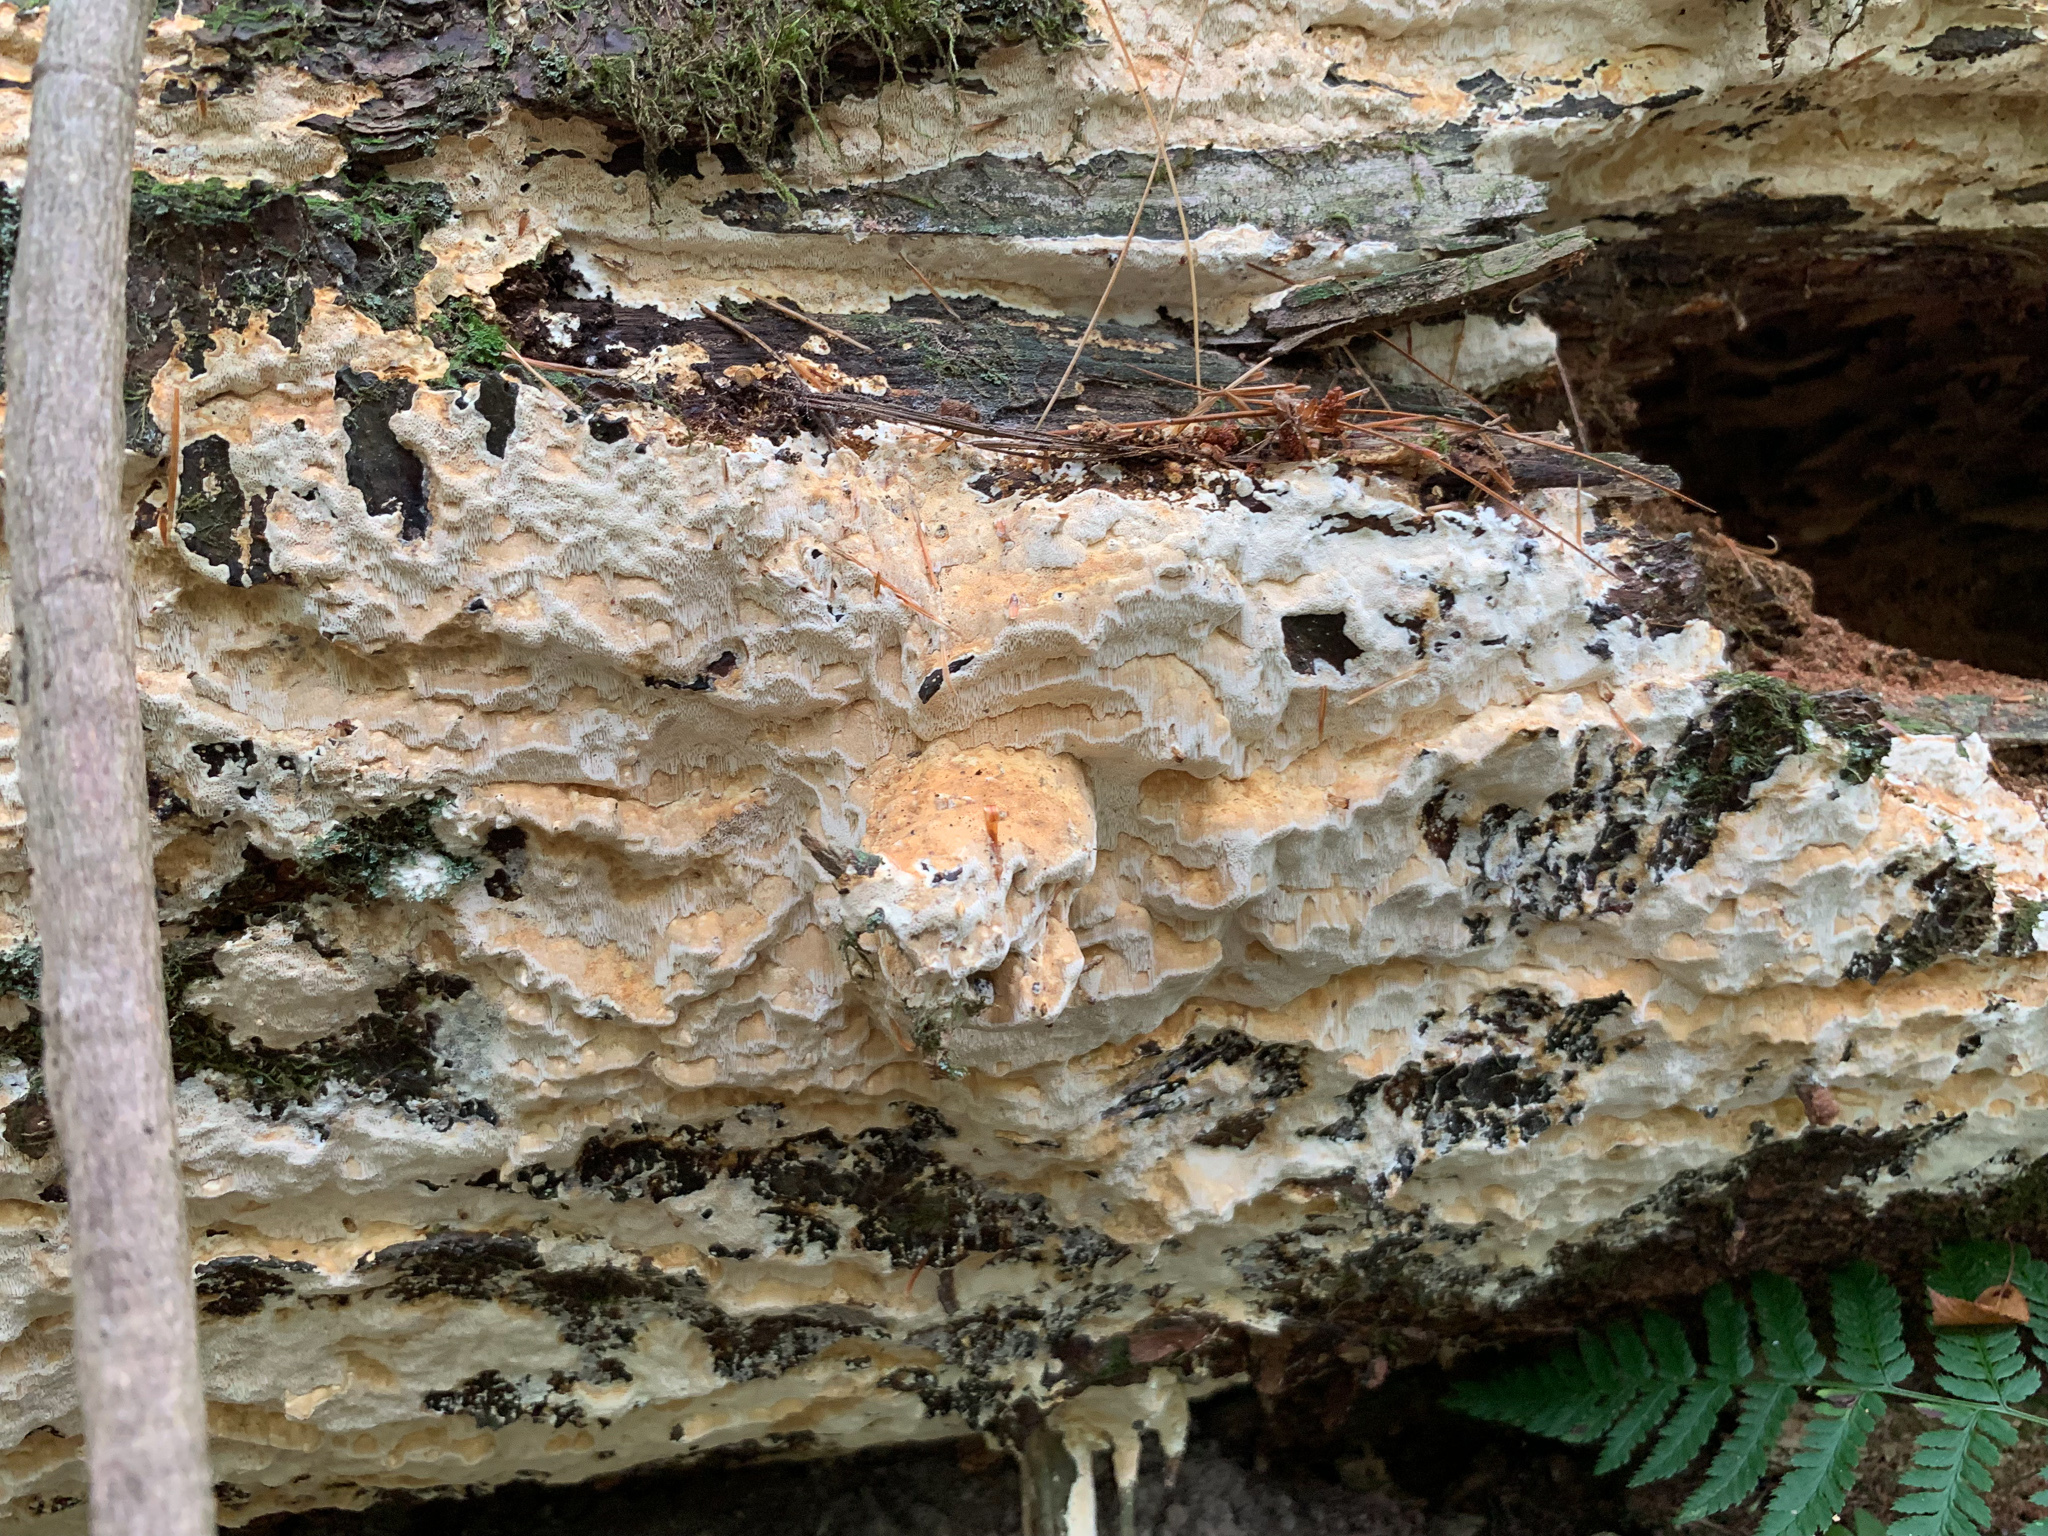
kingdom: Fungi
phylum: Basidiomycota
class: Agaricomycetes
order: Polyporales
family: Fomitopsidaceae
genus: Fomitopsis
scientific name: Fomitopsis
